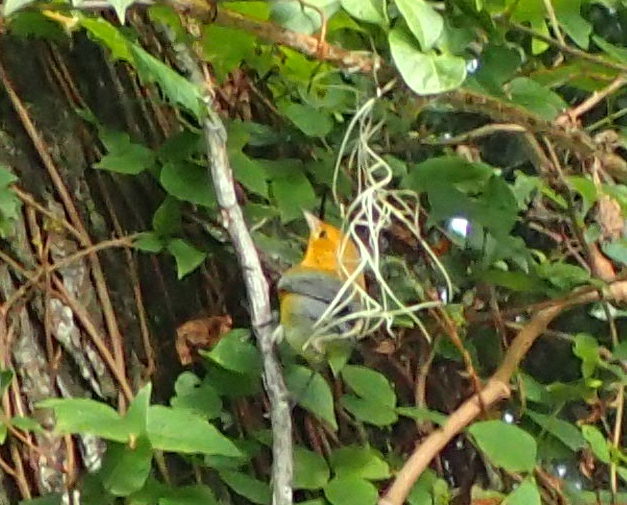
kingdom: Animalia
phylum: Chordata
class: Aves
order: Passeriformes
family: Parulidae
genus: Protonotaria
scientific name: Protonotaria citrea
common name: Prothonotary warbler
